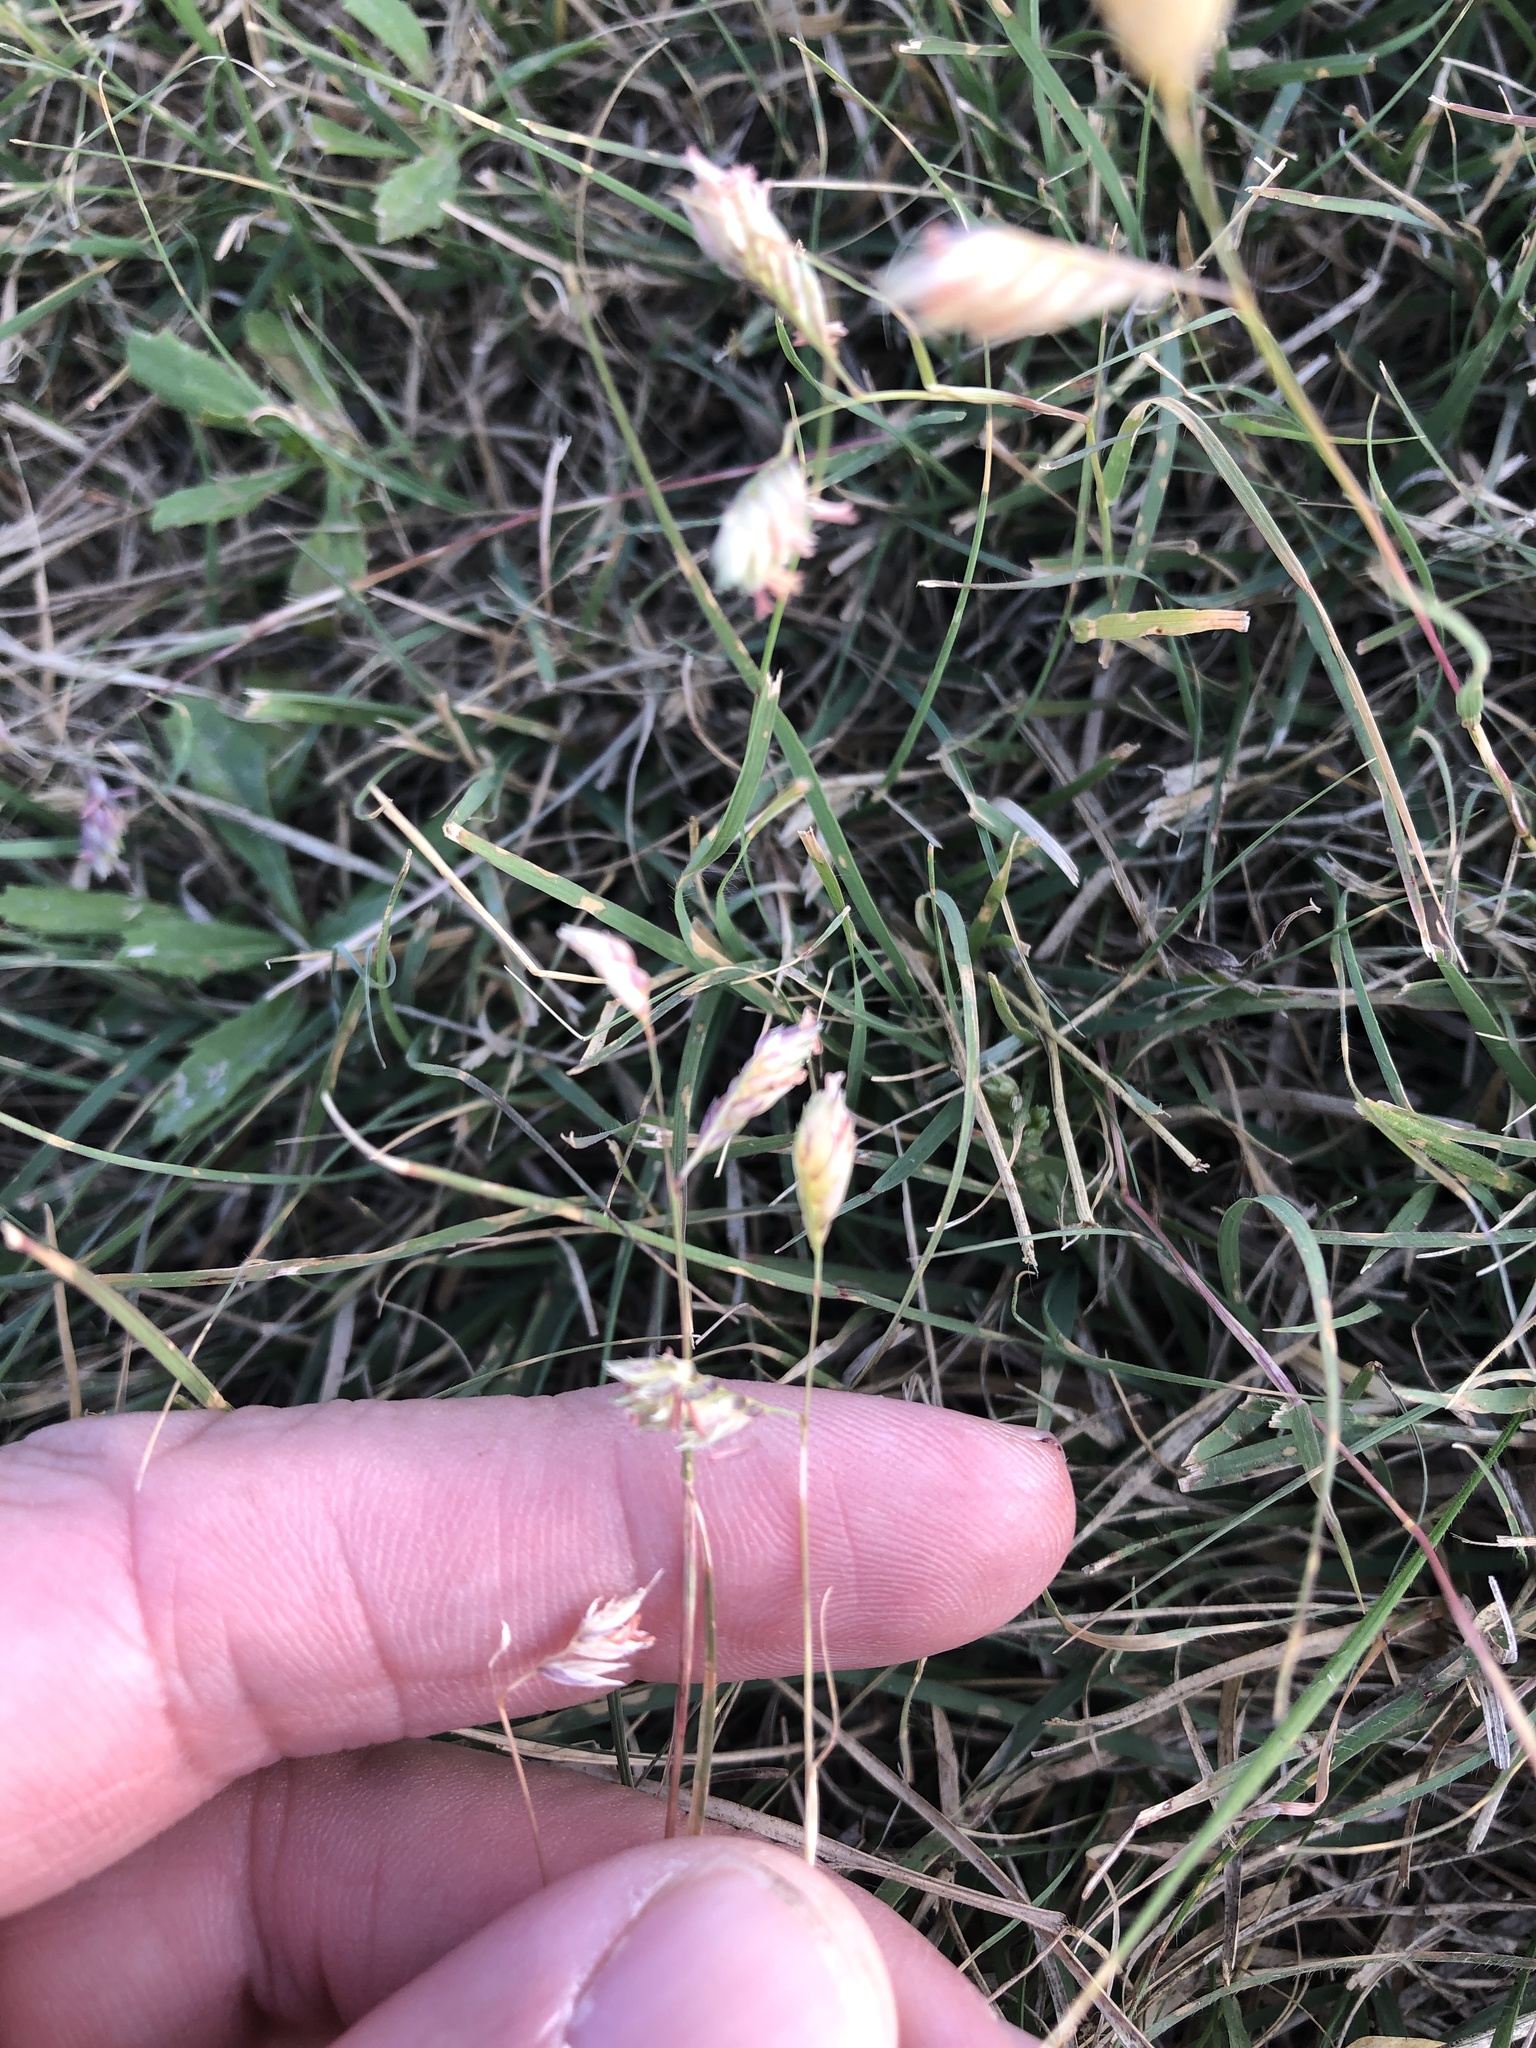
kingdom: Plantae
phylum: Tracheophyta
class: Liliopsida
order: Poales
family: Poaceae
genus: Bouteloua
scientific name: Bouteloua dactyloides
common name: Buffalo grass
